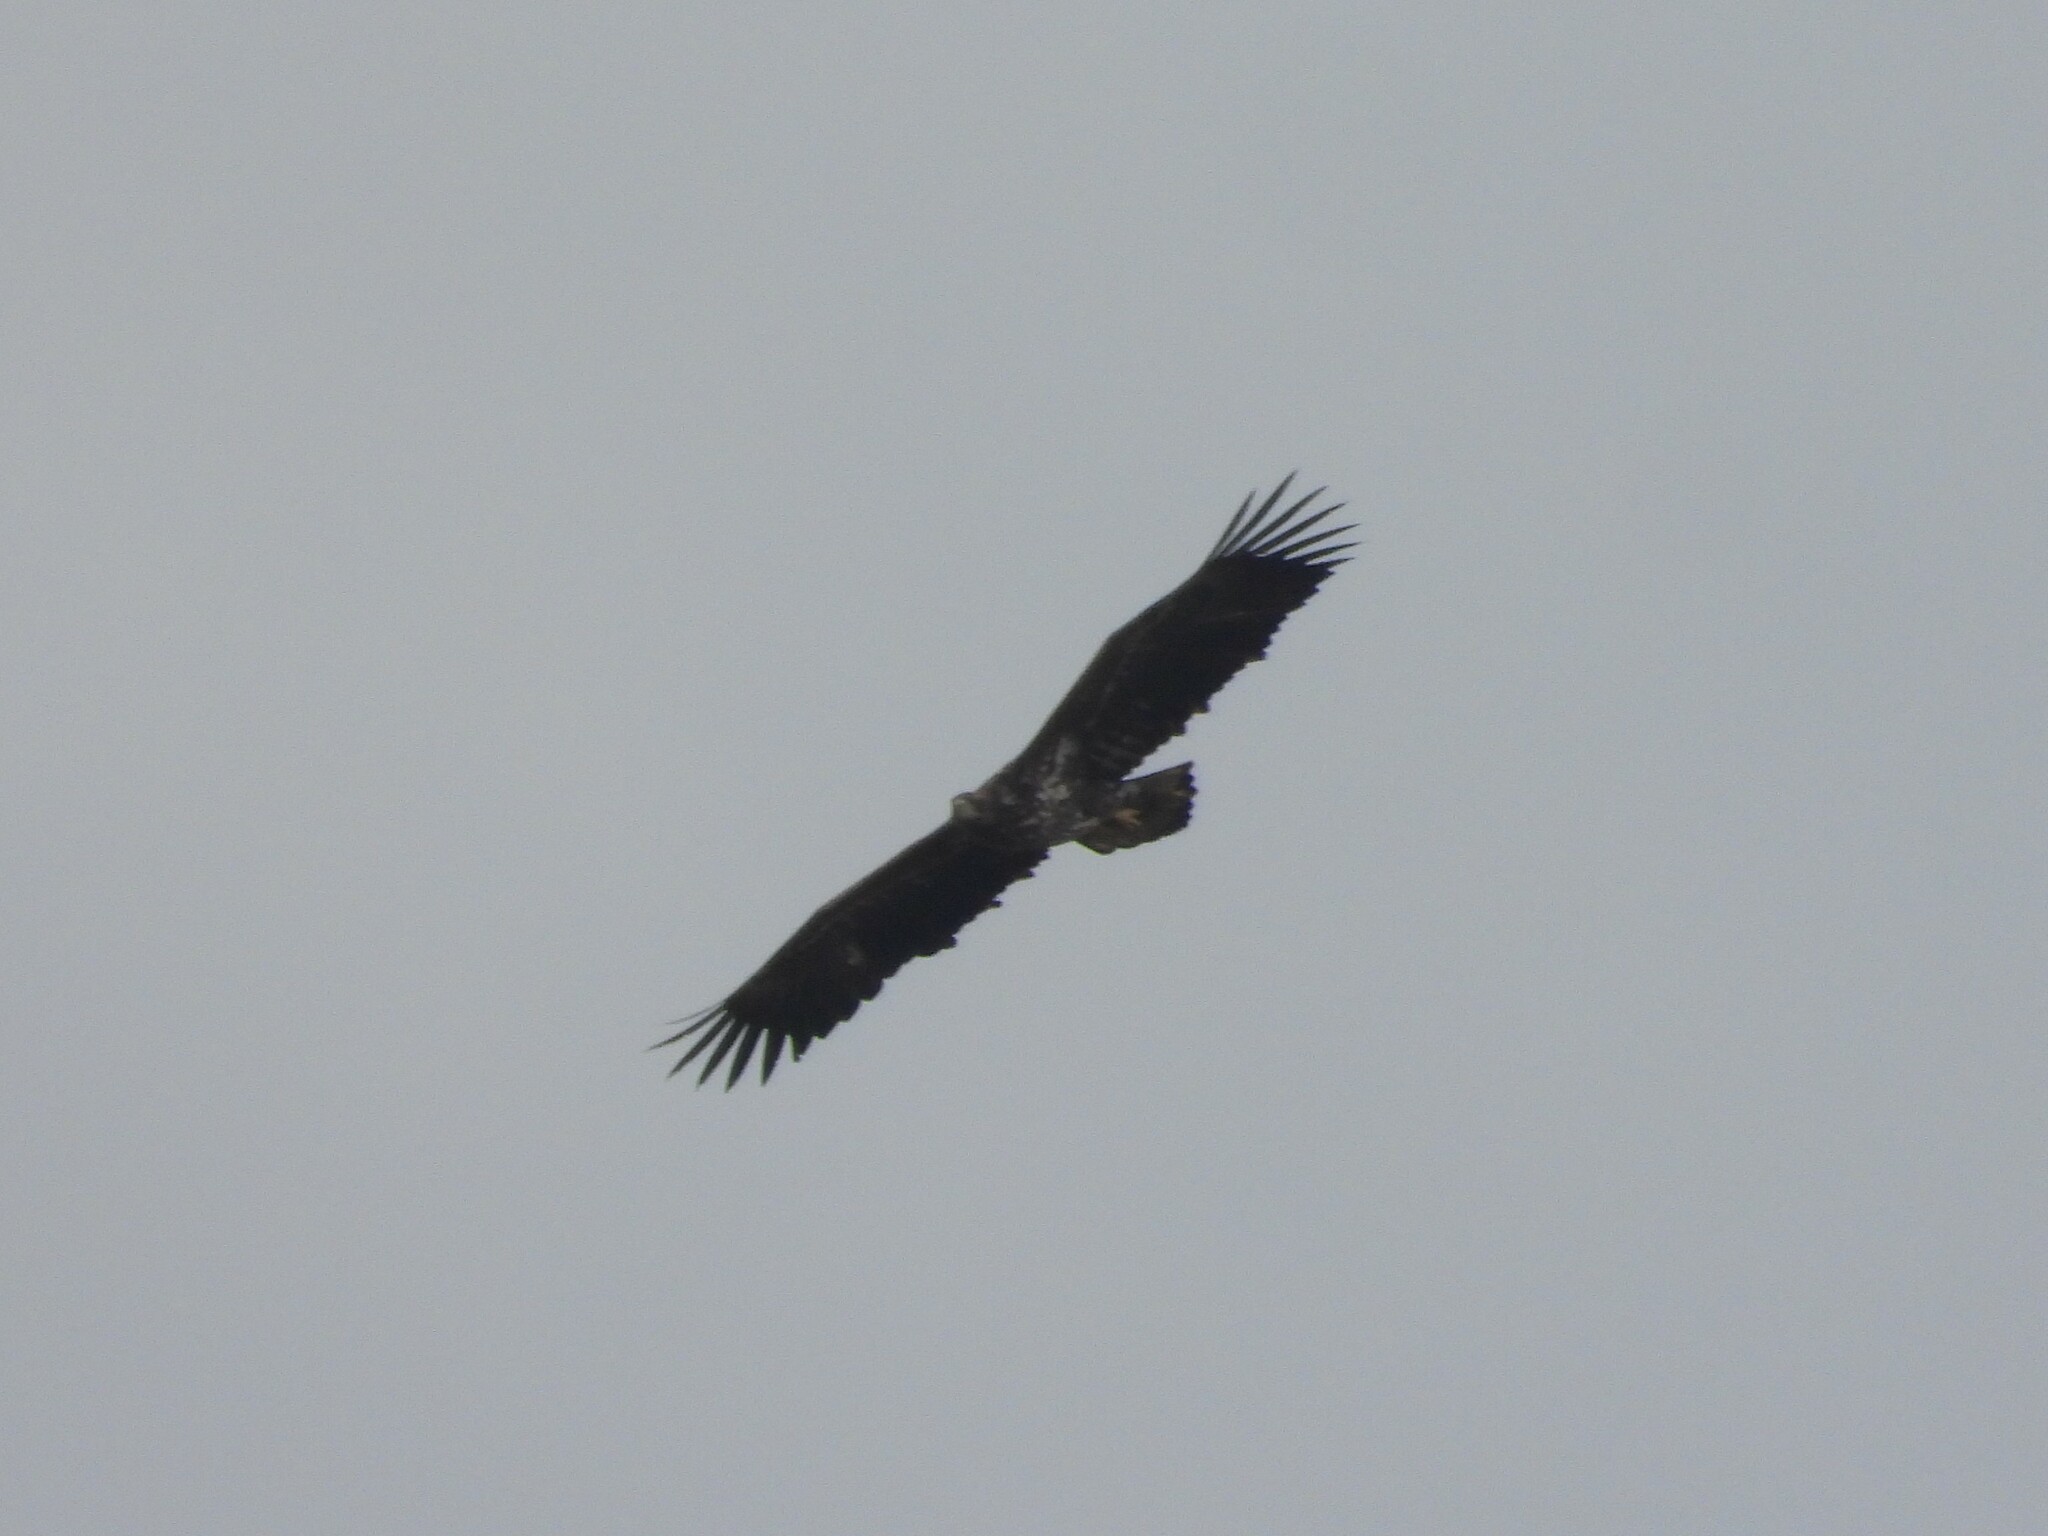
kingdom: Animalia
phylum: Chordata
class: Aves
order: Accipitriformes
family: Accipitridae
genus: Haliaeetus
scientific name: Haliaeetus albicilla
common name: White-tailed eagle
